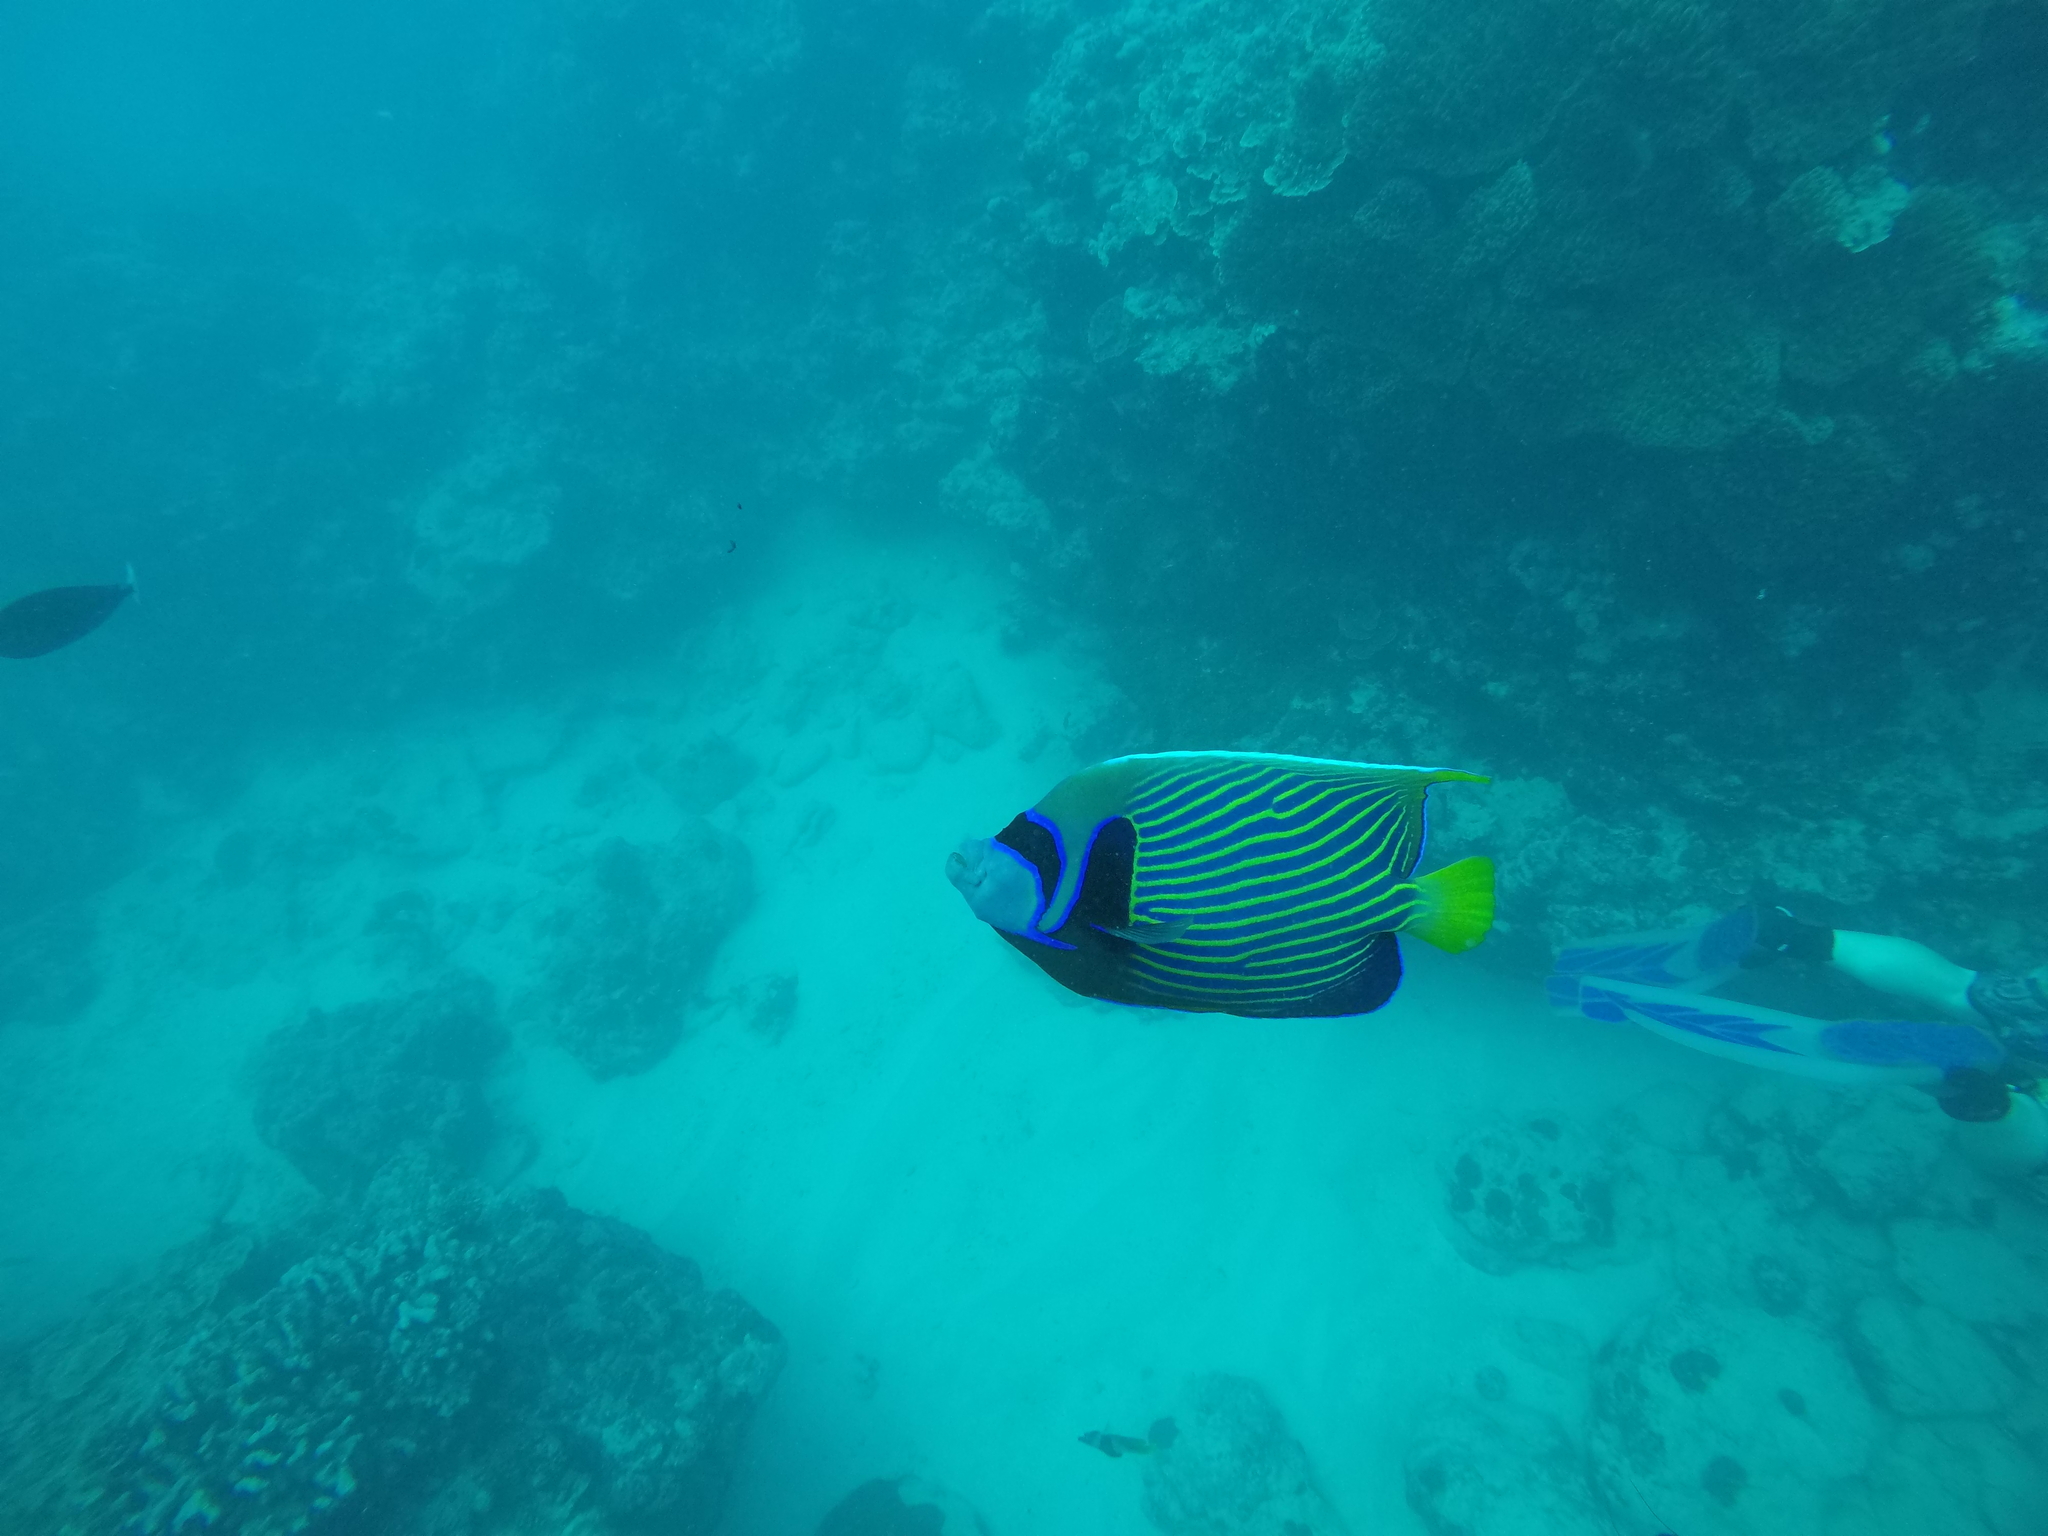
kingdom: Animalia
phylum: Chordata
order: Perciformes
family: Pomacanthidae
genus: Pomacanthus
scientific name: Pomacanthus imperator
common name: Emperor angelfish
